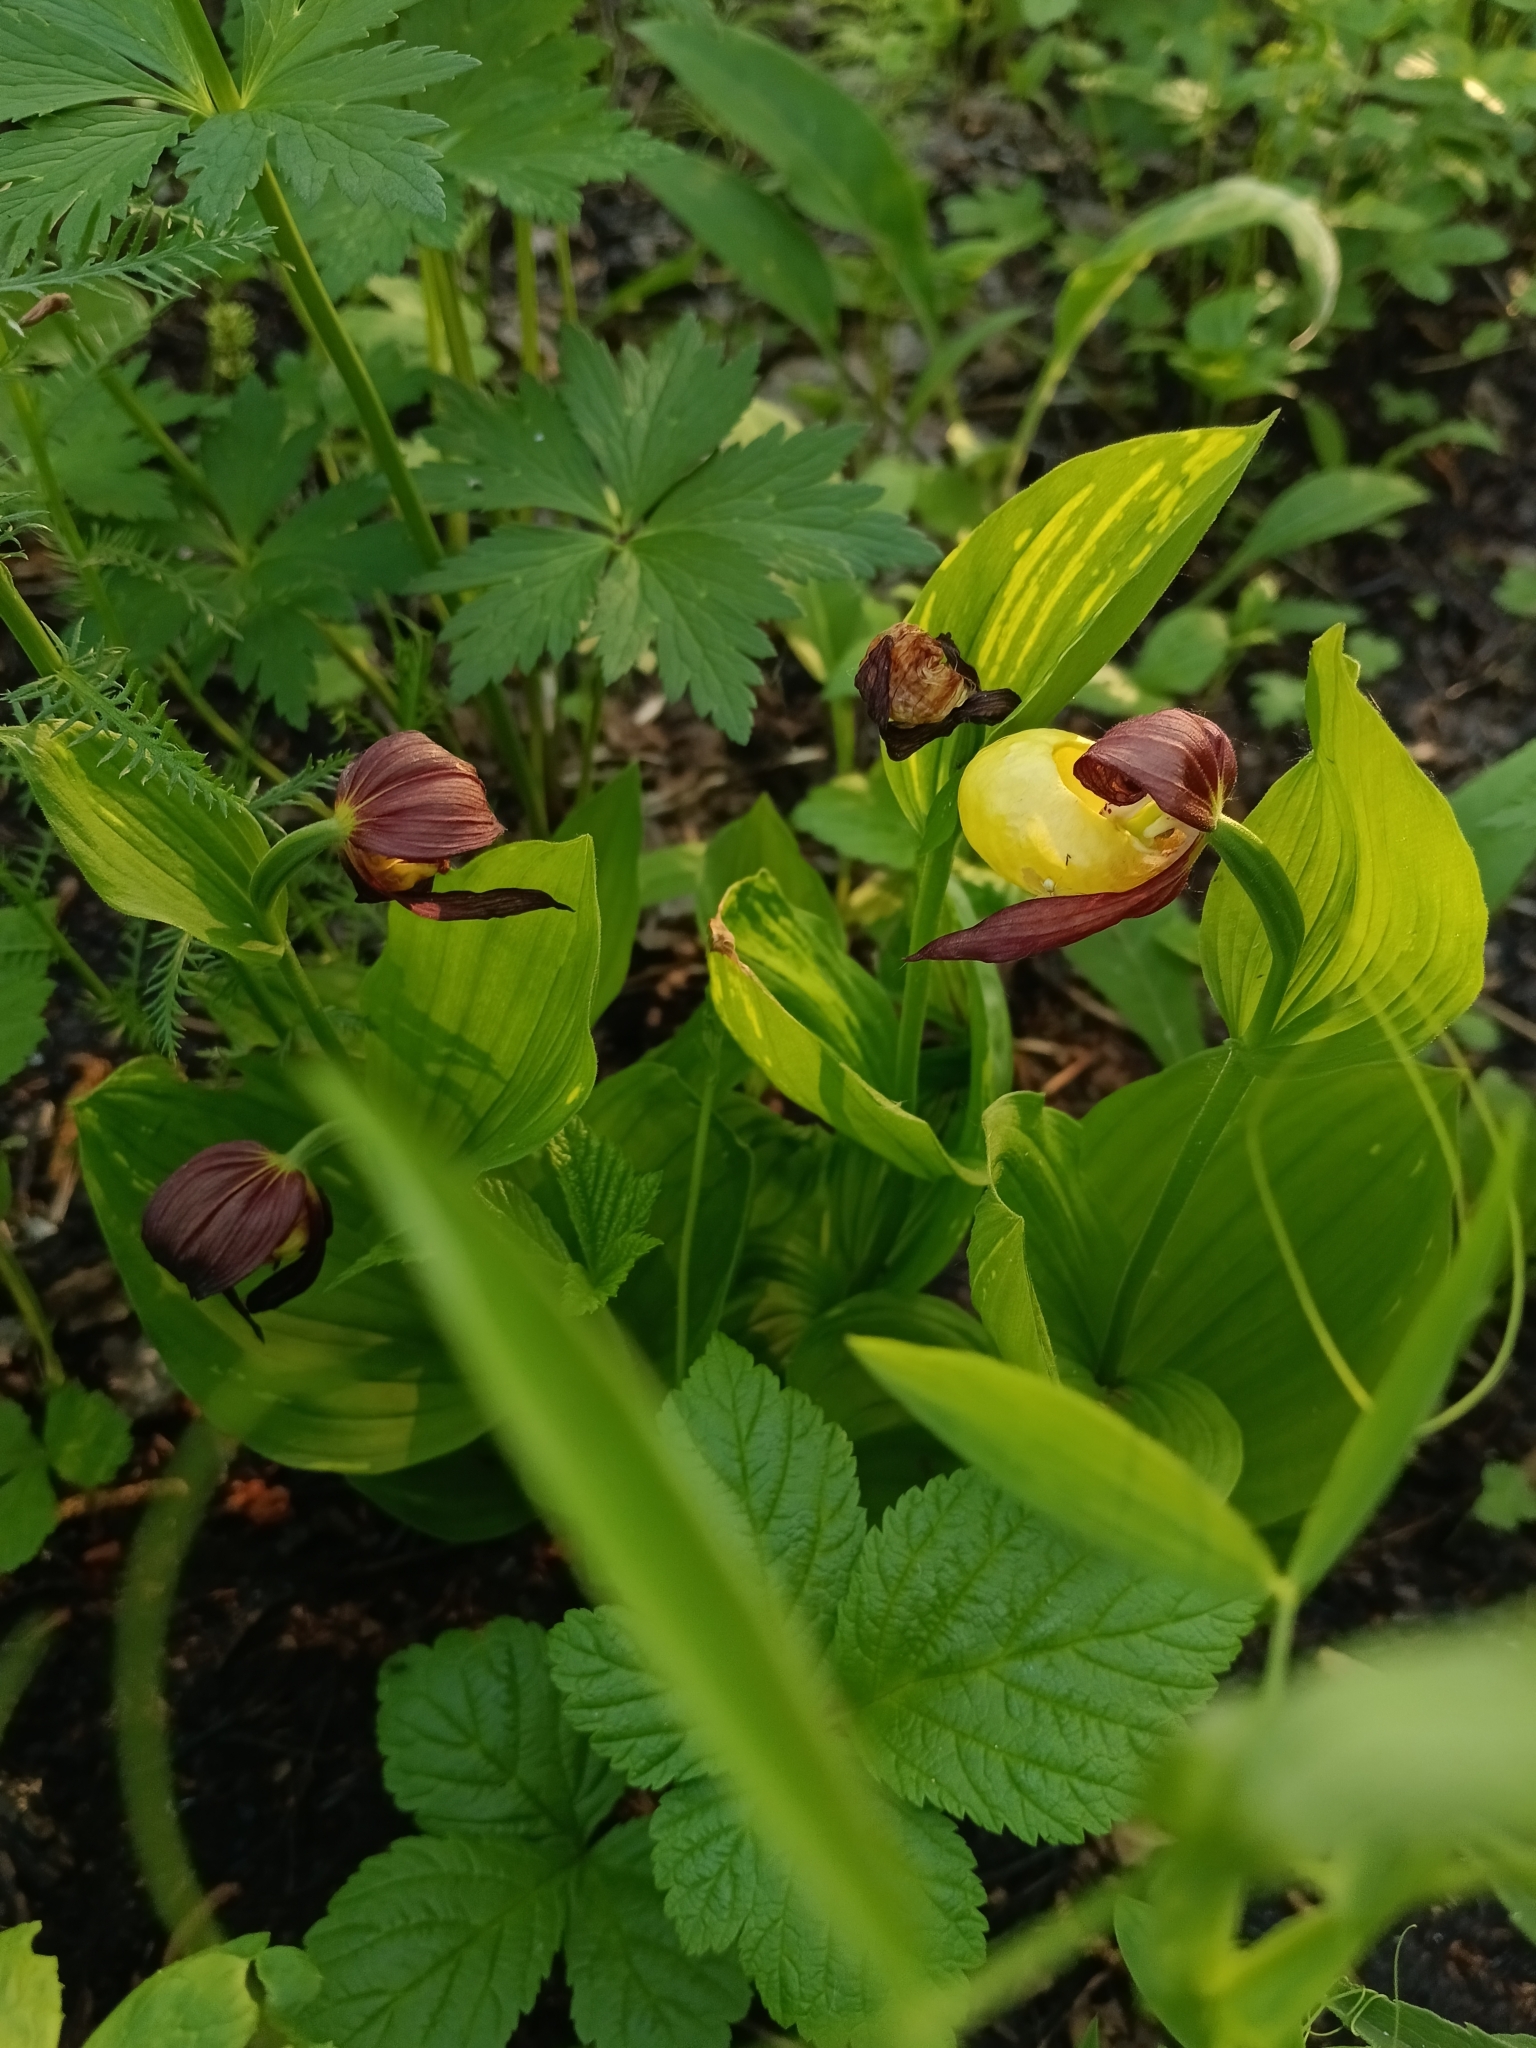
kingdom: Plantae
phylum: Tracheophyta
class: Liliopsida
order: Asparagales
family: Orchidaceae
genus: Cypripedium
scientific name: Cypripedium calceolus
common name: Lady's-slipper
